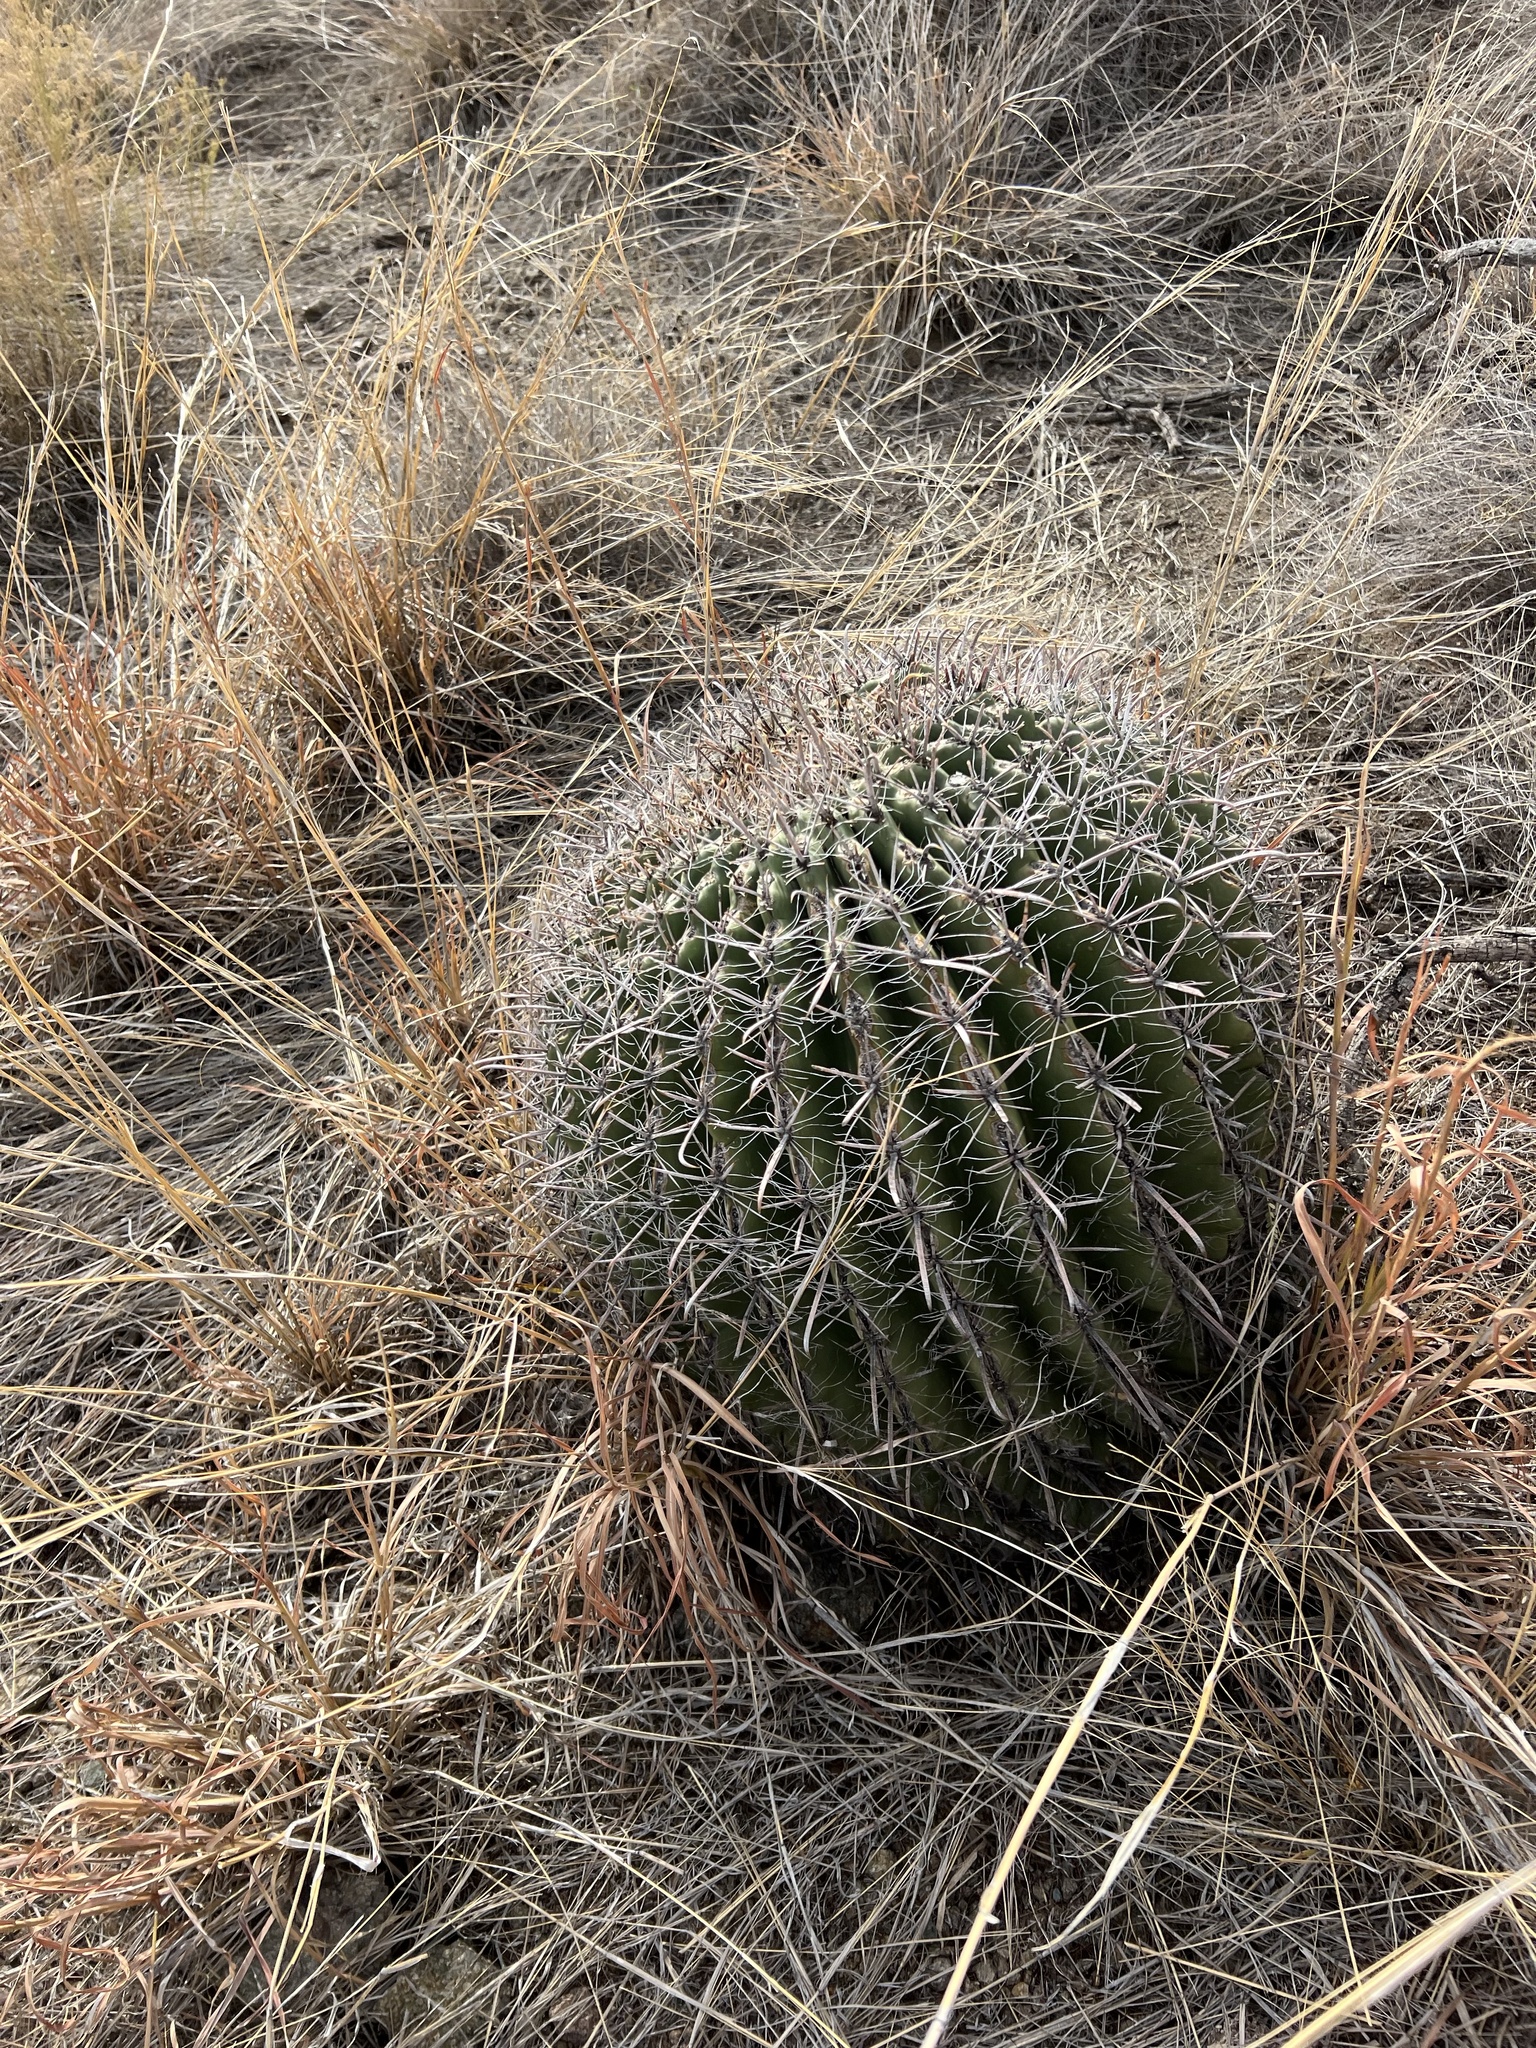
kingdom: Plantae
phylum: Tracheophyta
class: Magnoliopsida
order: Caryophyllales
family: Cactaceae
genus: Ferocactus
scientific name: Ferocactus wislizeni
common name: Candy barrel cactus
